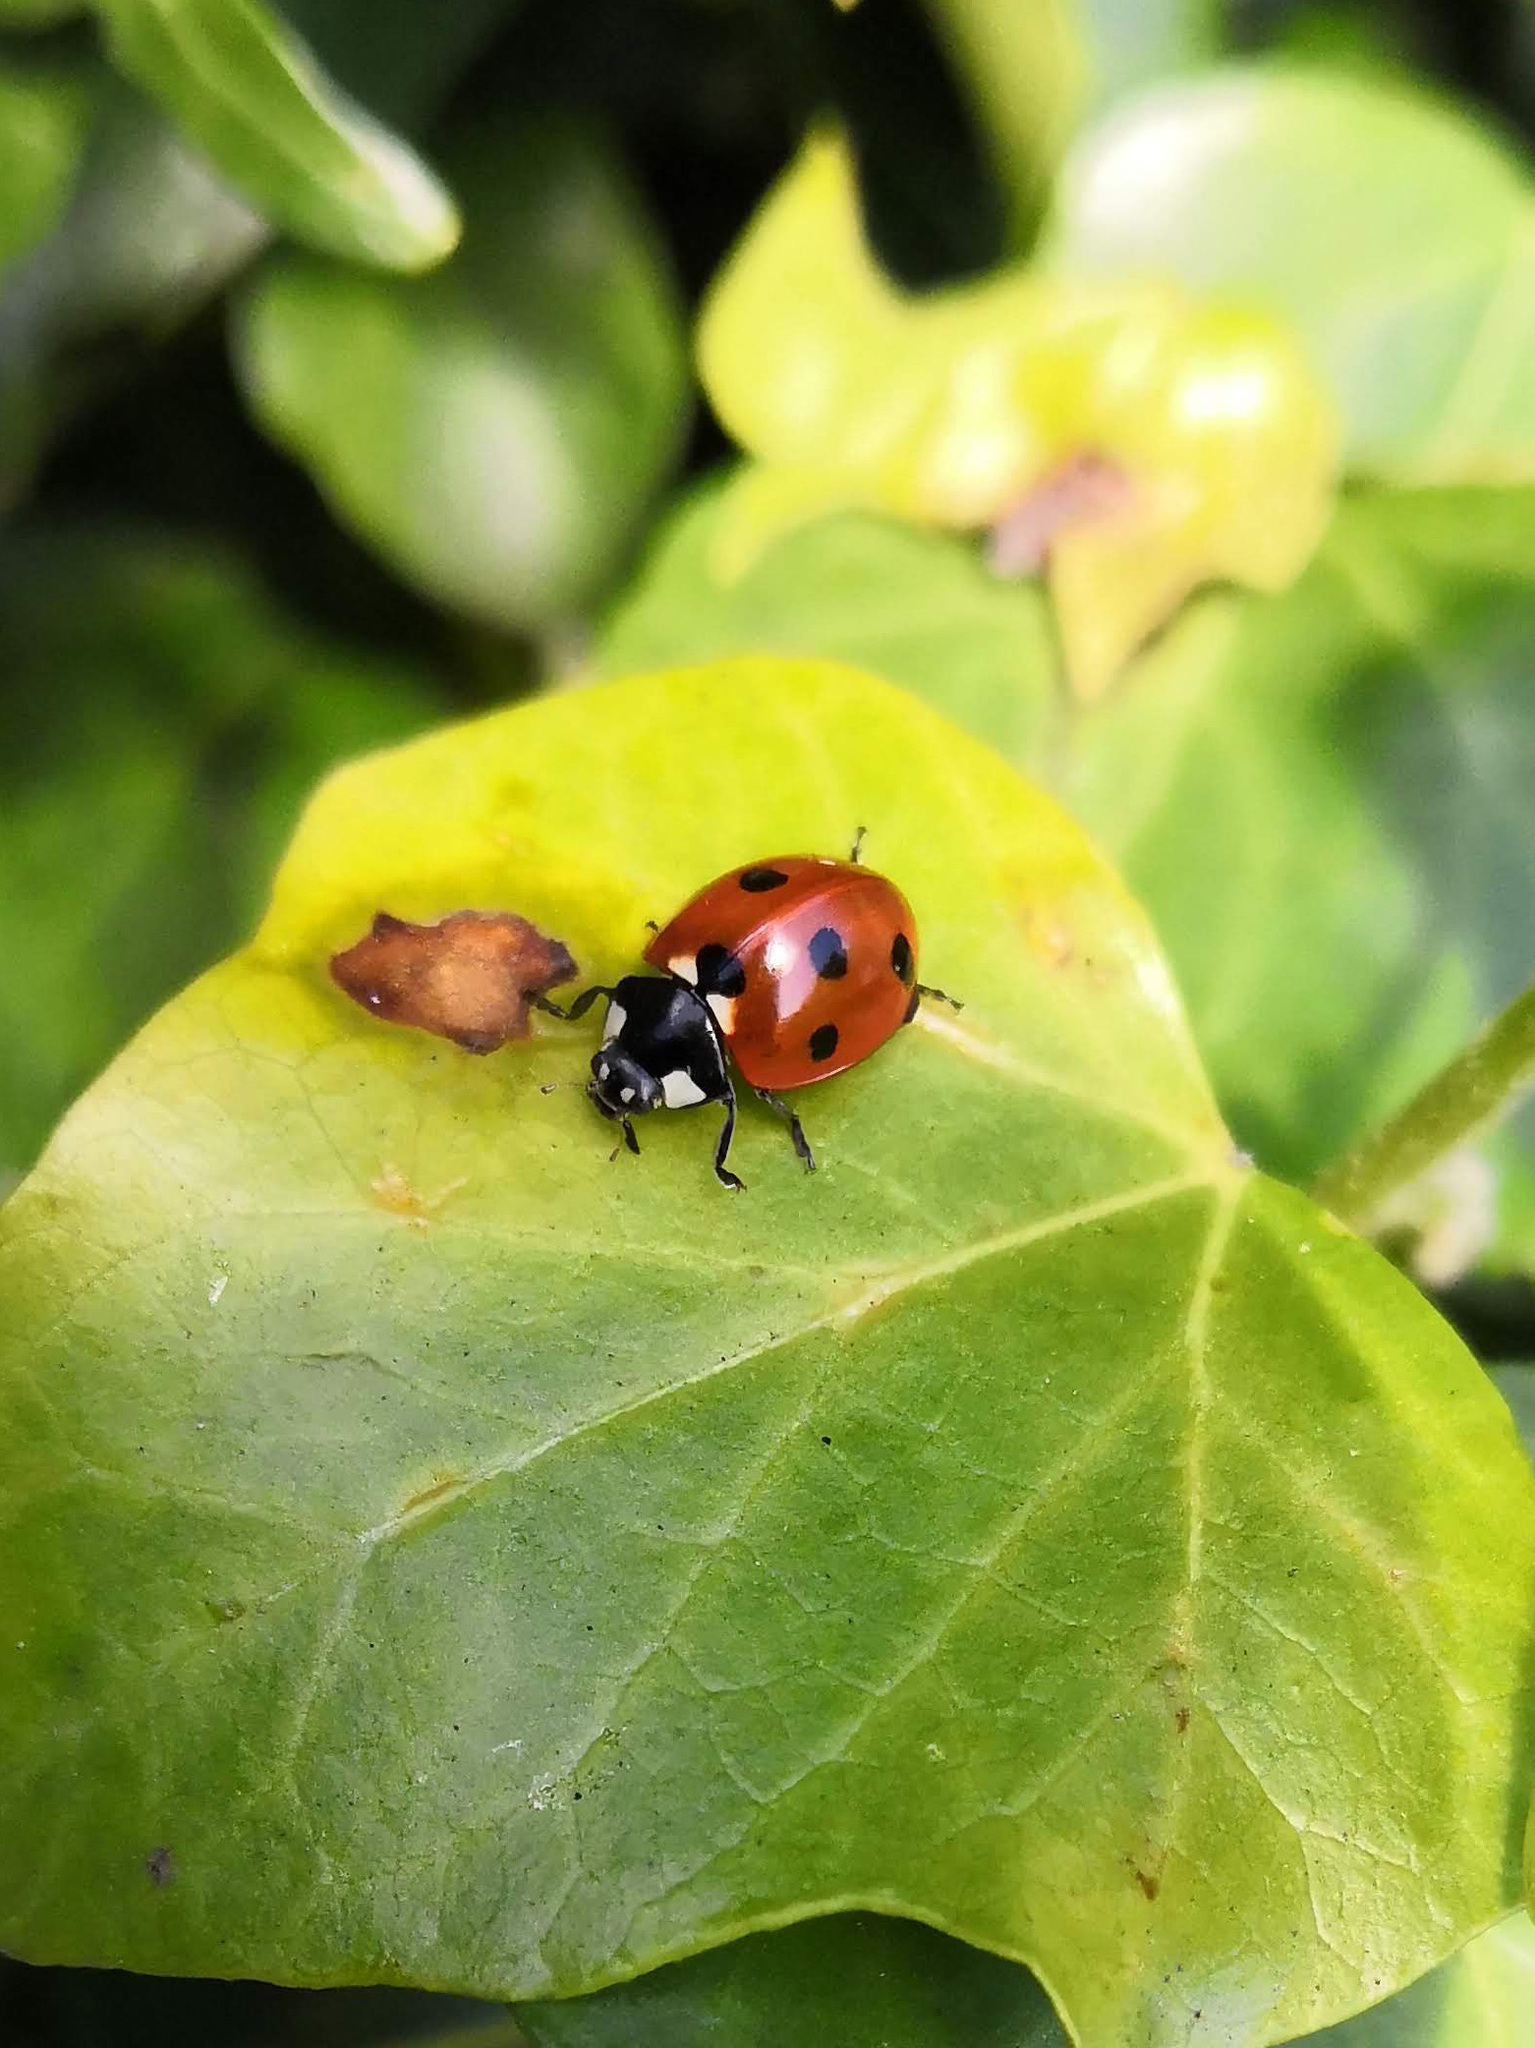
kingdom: Animalia
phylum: Arthropoda
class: Insecta
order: Coleoptera
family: Coccinellidae
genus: Coccinella
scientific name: Coccinella septempunctata
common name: Sevenspotted lady beetle
